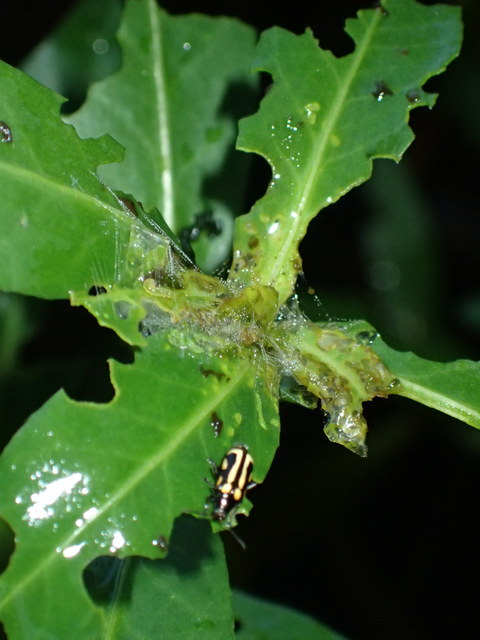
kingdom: Animalia
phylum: Arthropoda
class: Insecta
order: Coleoptera
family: Chrysomelidae
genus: Agasicles
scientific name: Agasicles hygrophila
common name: Alligatorweed flea beetle
